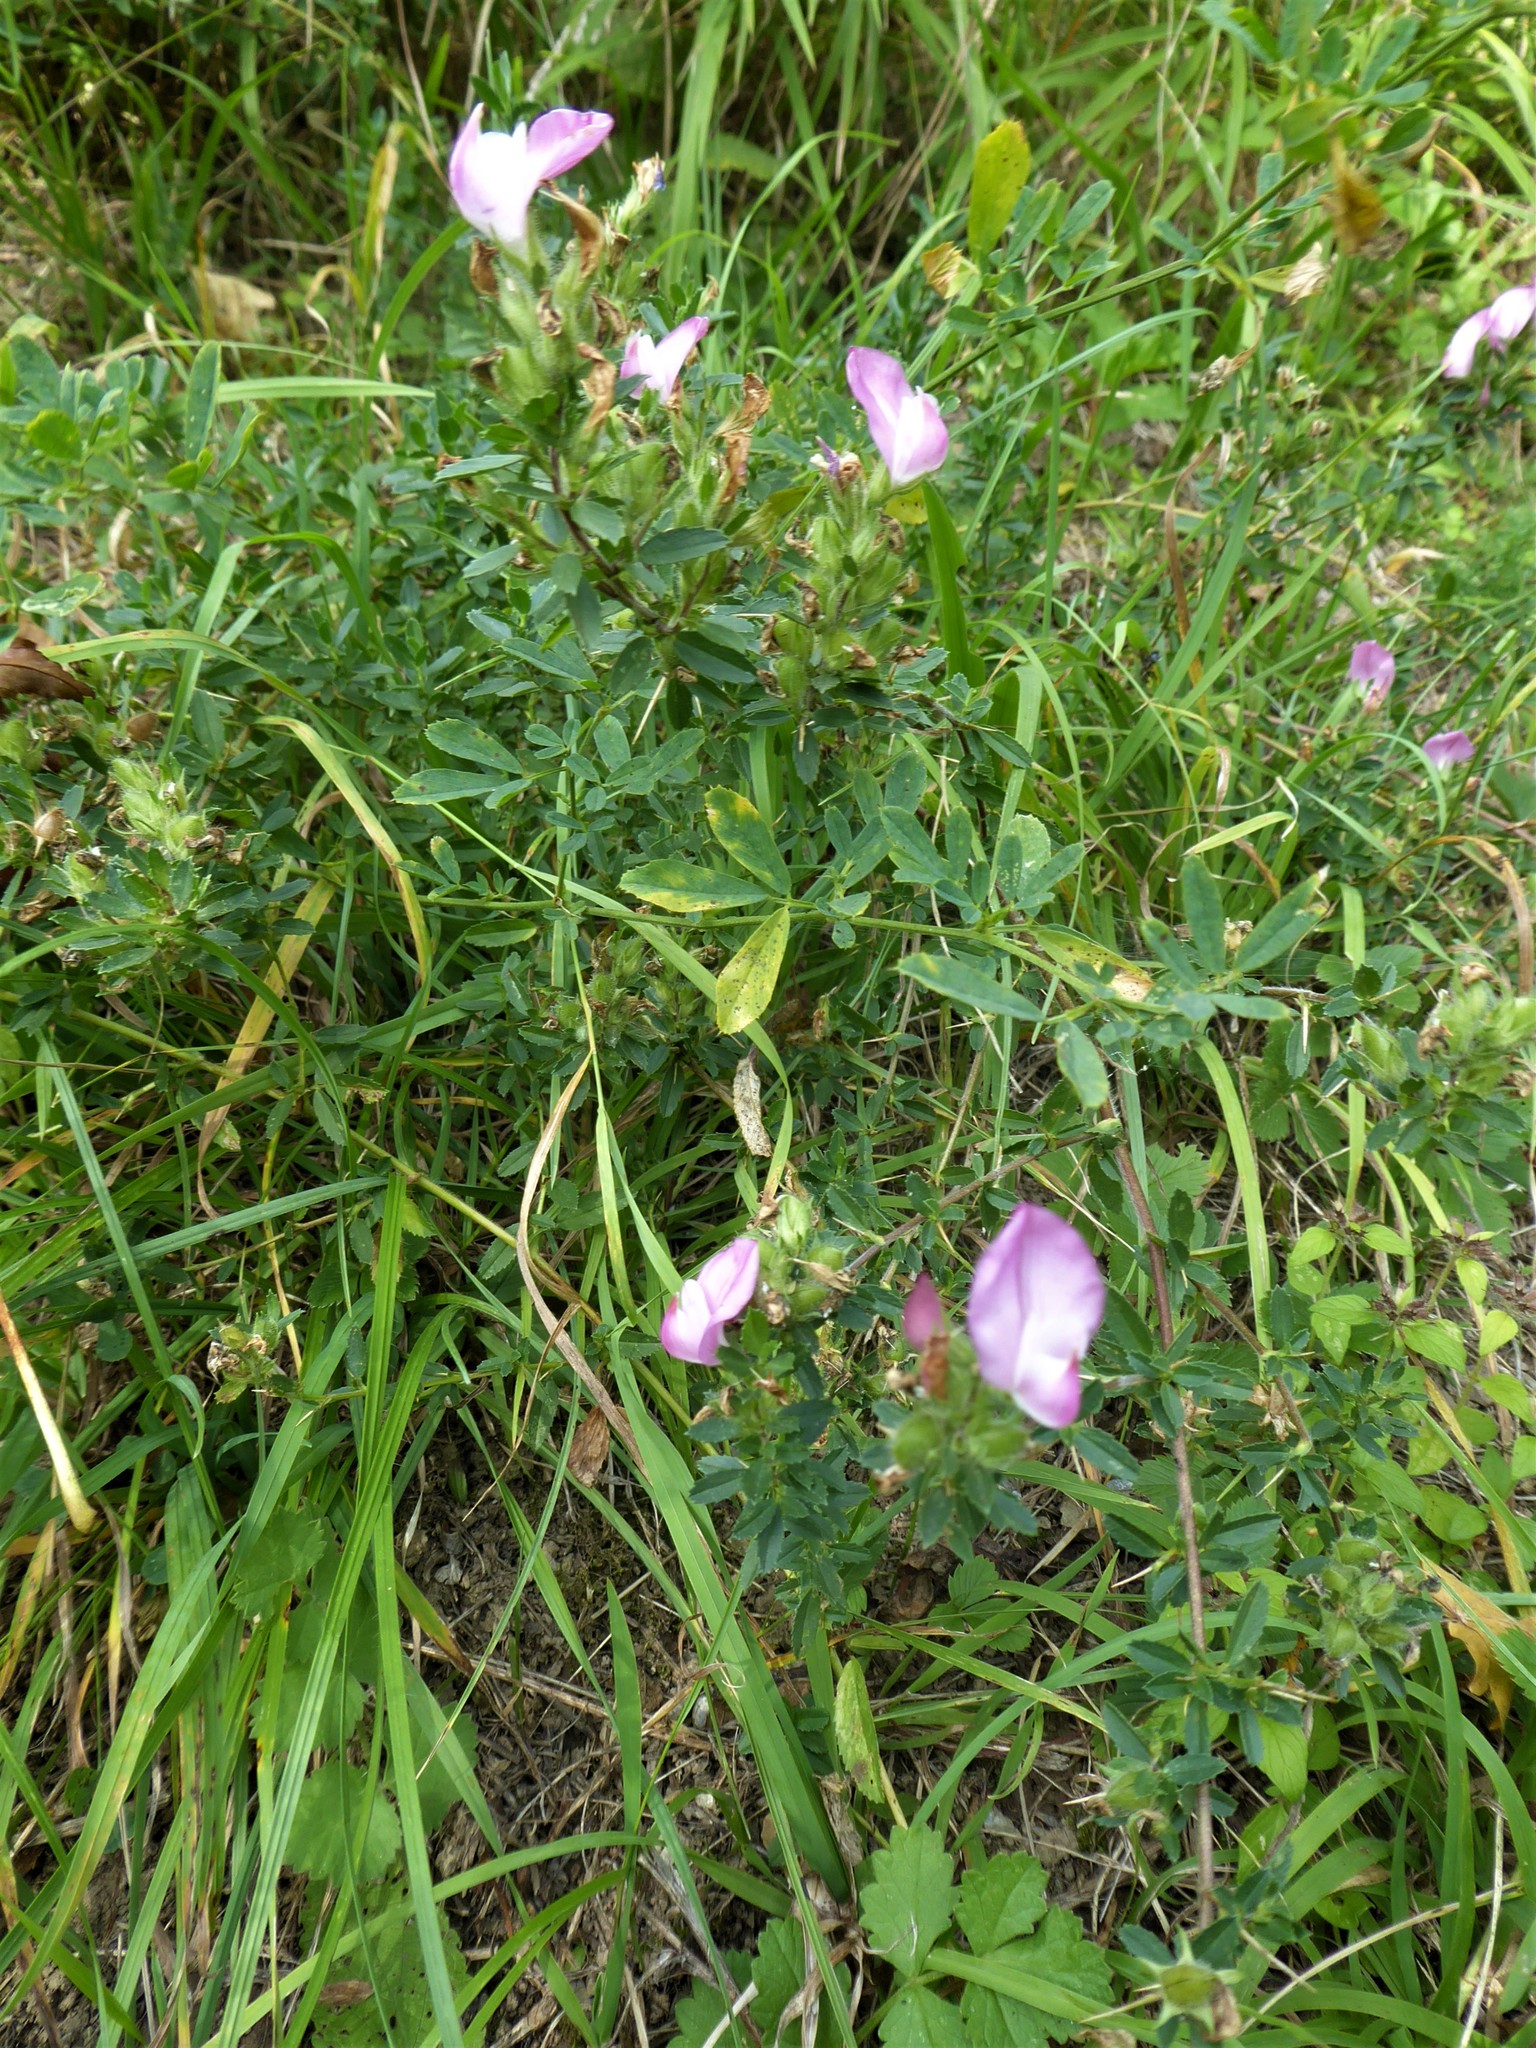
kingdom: Plantae
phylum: Tracheophyta
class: Magnoliopsida
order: Fabales
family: Fabaceae
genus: Ononis
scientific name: Ononis spinosa
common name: Spiny restharrow
